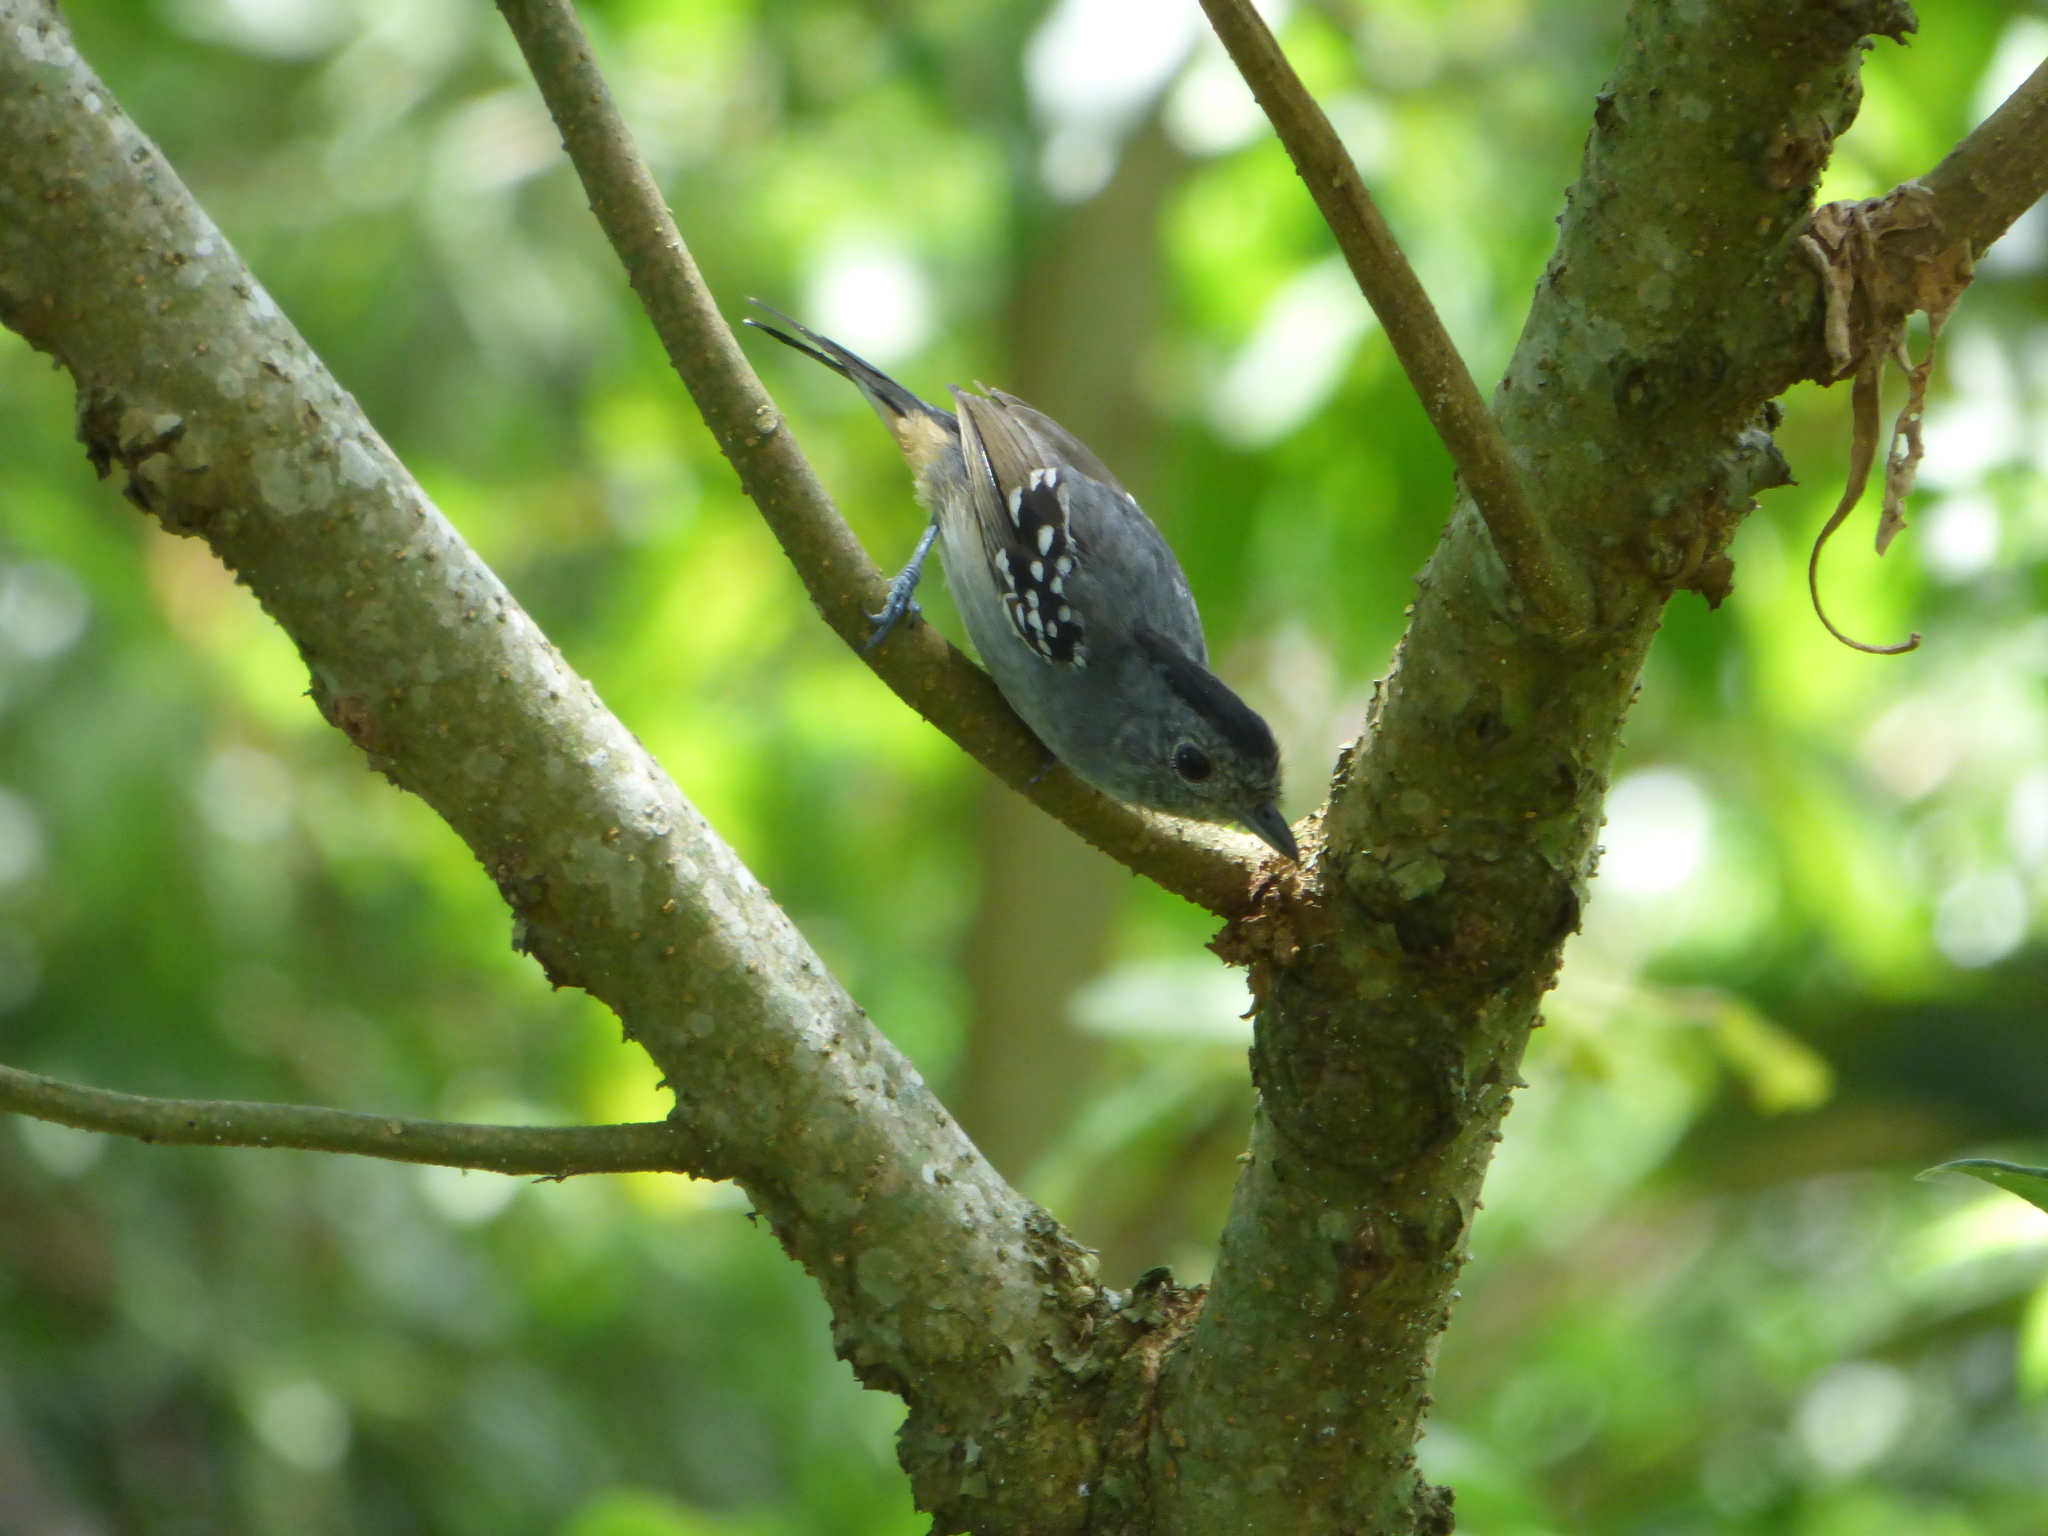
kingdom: Animalia
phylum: Chordata
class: Aves
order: Passeriformes
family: Thamnophilidae
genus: Thamnophilus
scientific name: Thamnophilus caerulescens
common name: Variable antshrike
